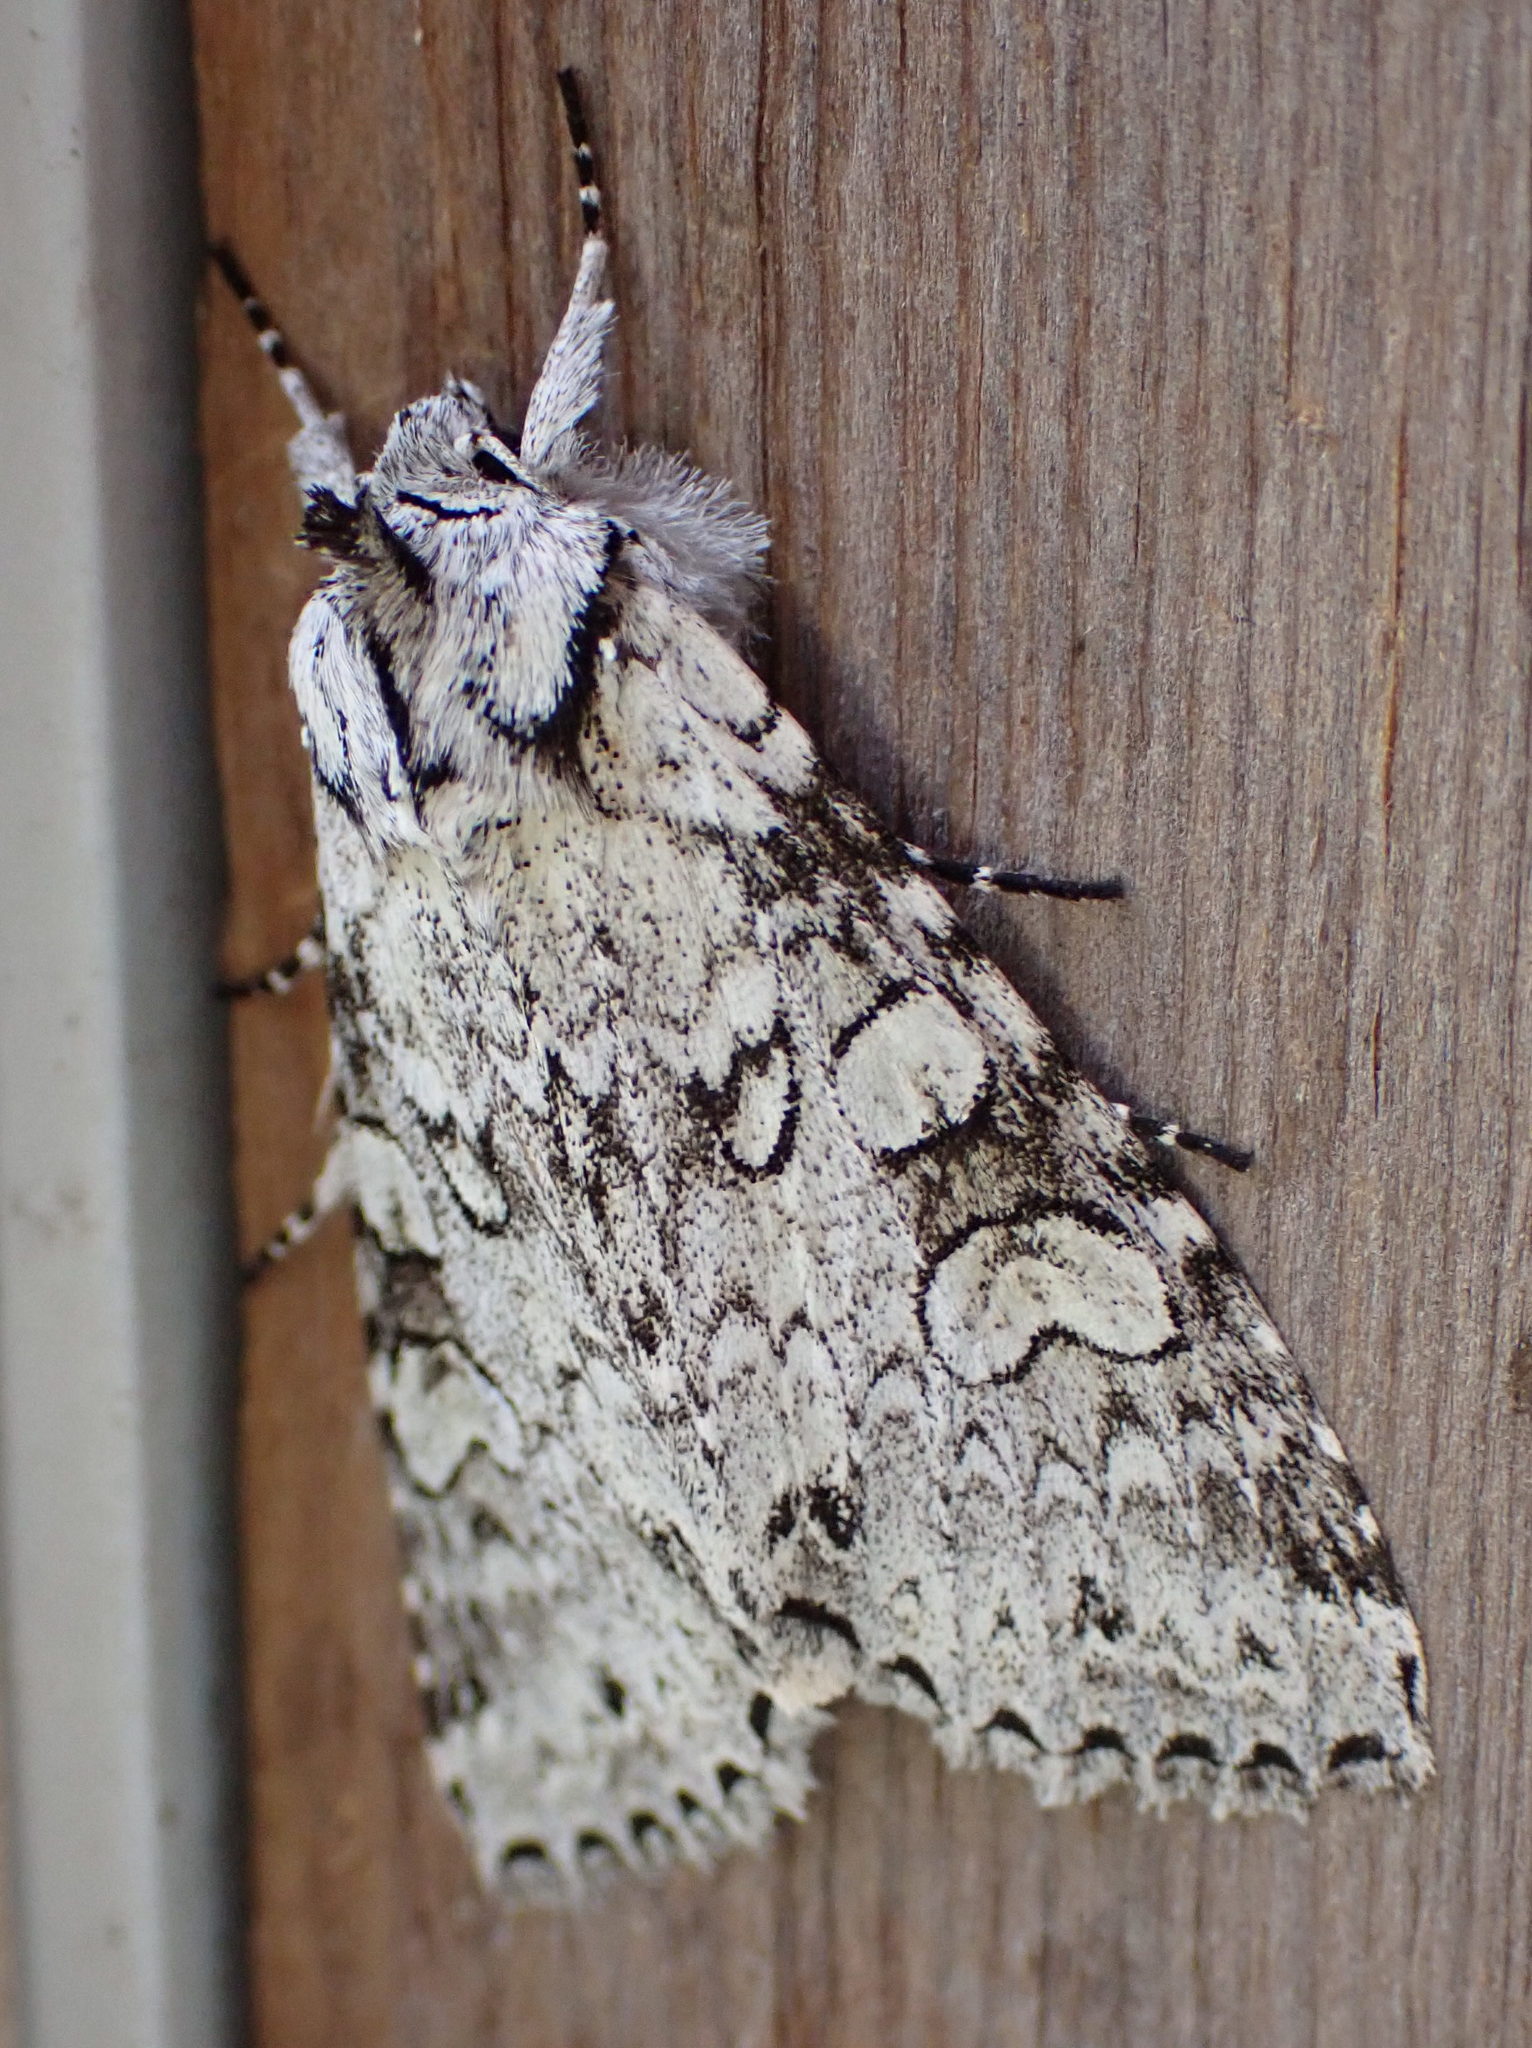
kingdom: Animalia
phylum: Arthropoda
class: Insecta
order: Lepidoptera
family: Noctuidae
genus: Polia
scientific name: Polia nimbosa
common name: Stormy arches
